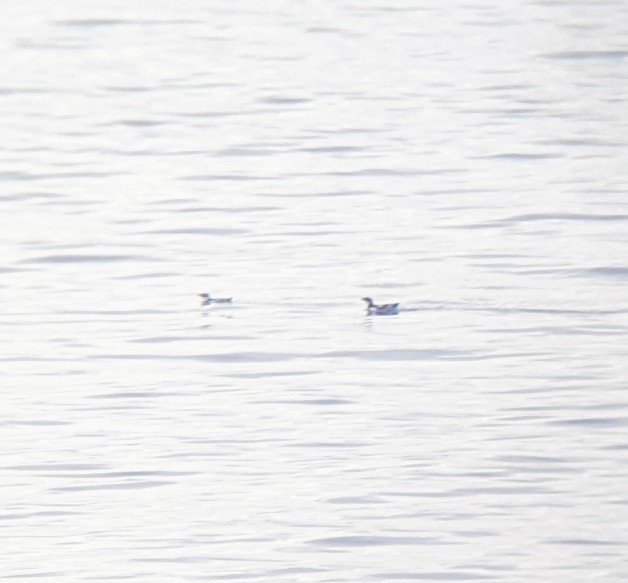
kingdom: Animalia
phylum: Chordata
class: Aves
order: Charadriiformes
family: Alcidae
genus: Brachyramphus
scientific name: Brachyramphus marmoratus
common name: Marbled murrelet
